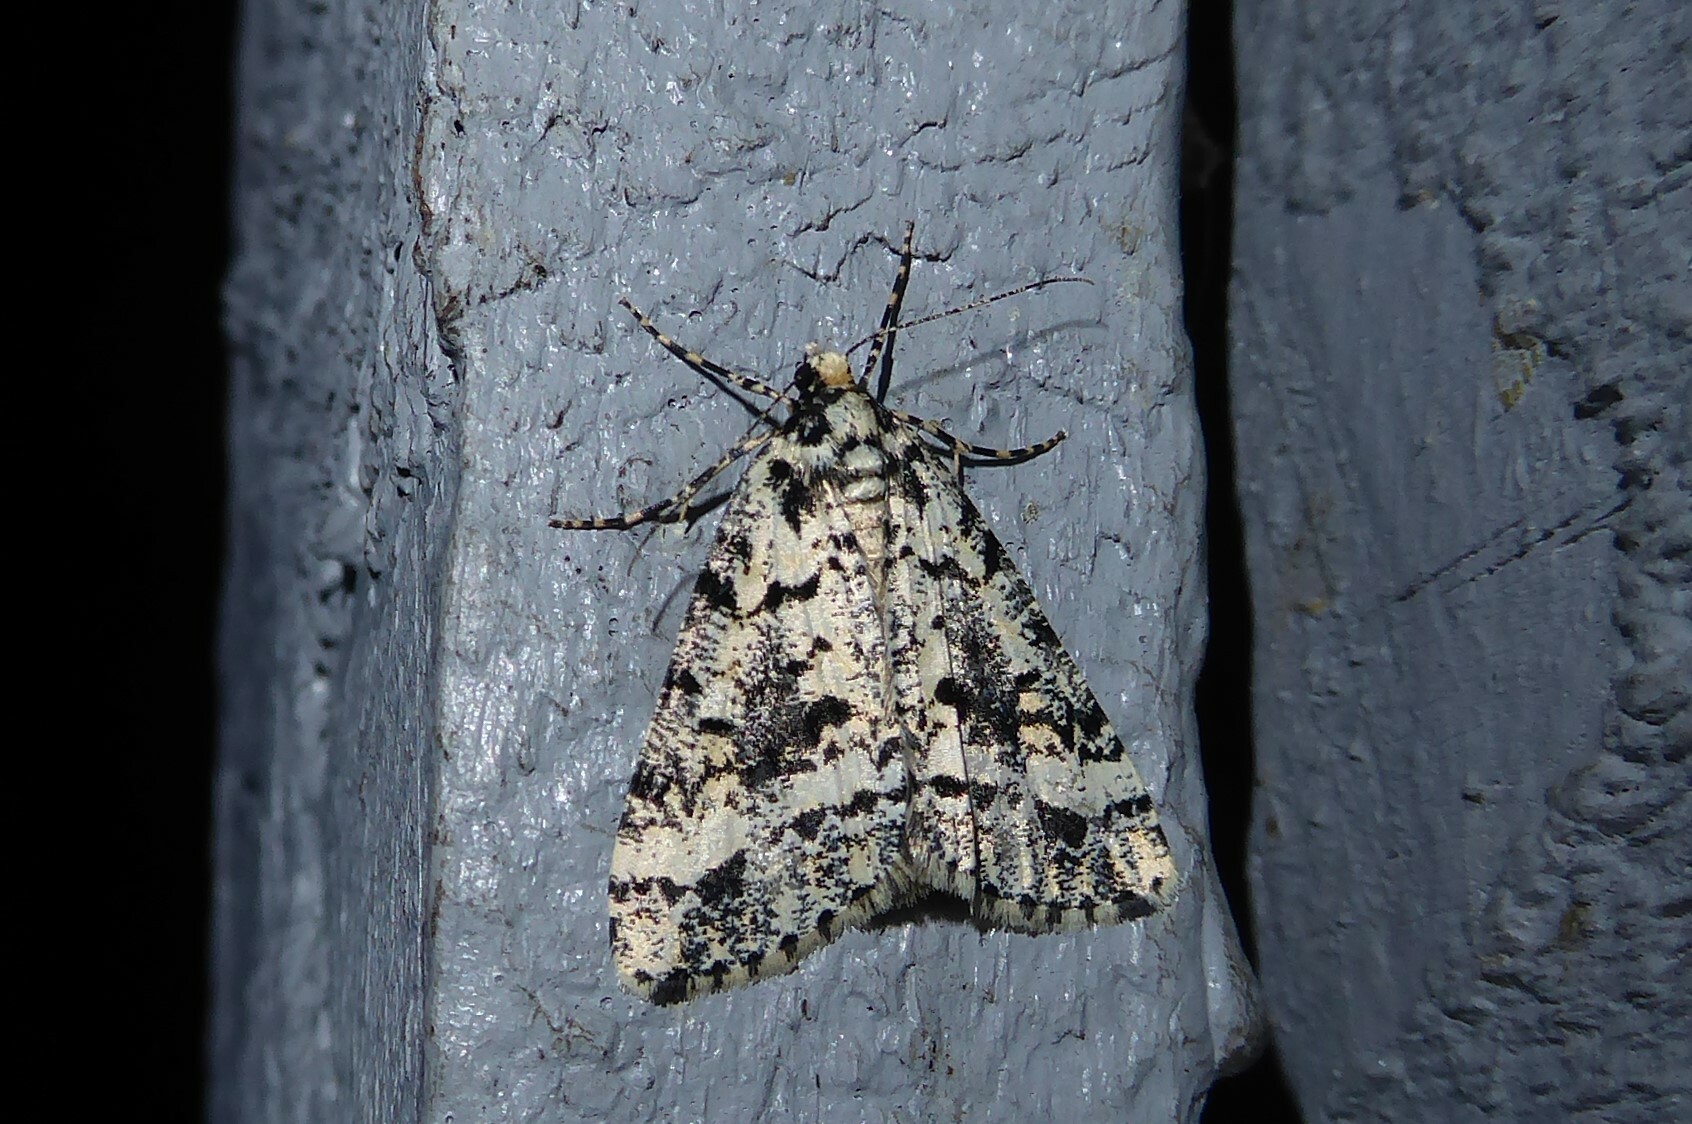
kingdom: Animalia
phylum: Arthropoda
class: Insecta
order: Lepidoptera
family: Geometridae
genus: Pseudocoremia
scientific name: Pseudocoremia leucelaea
